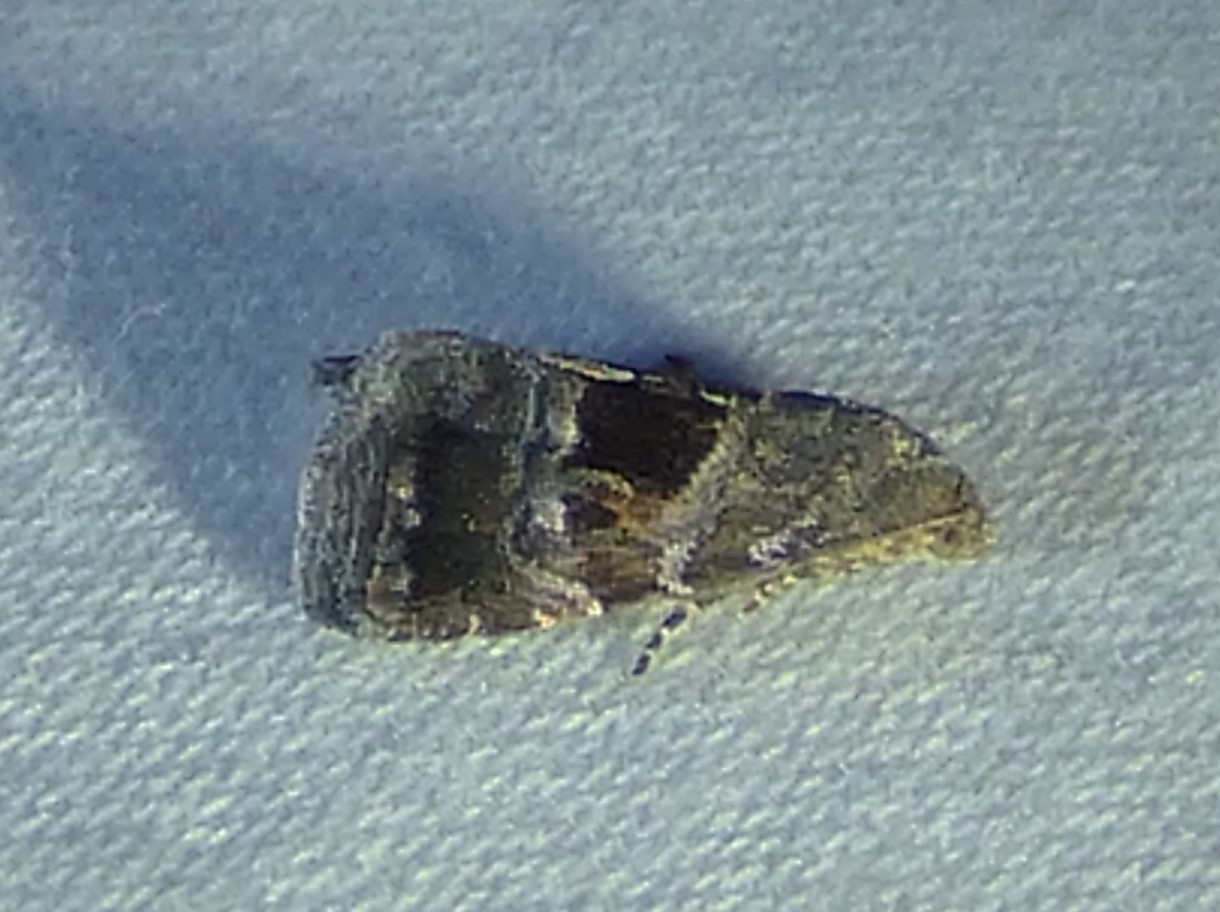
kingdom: Animalia
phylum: Arthropoda
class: Insecta
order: Lepidoptera
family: Noctuidae
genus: Tripudia
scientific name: Tripudia rectangula
